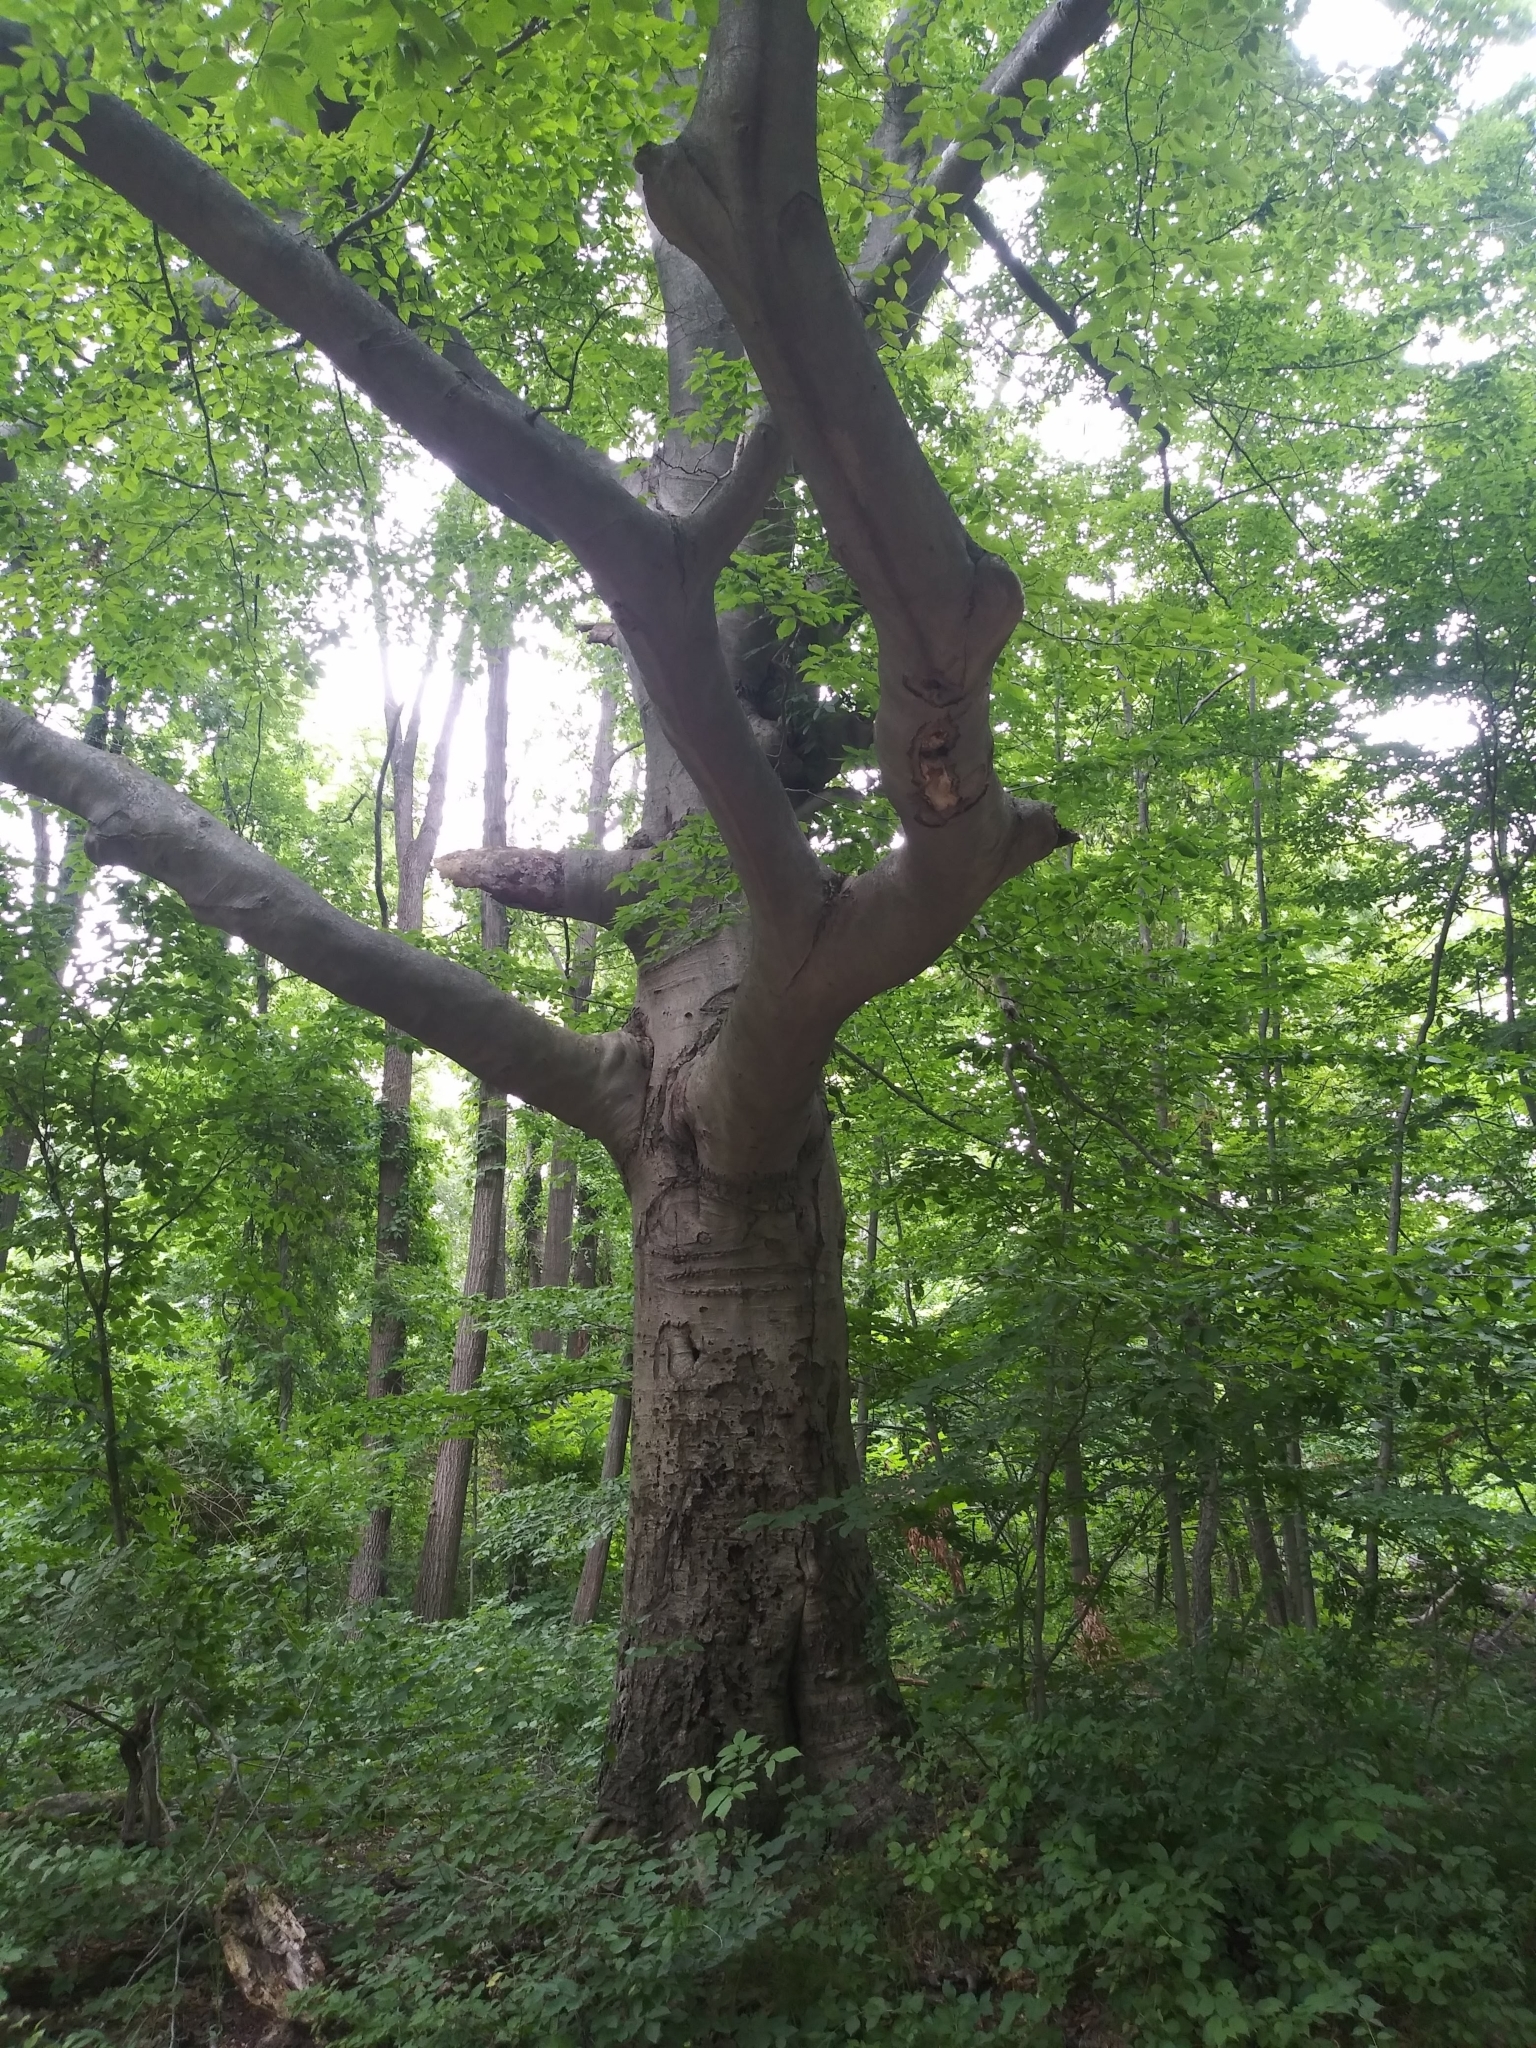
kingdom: Plantae
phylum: Tracheophyta
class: Magnoliopsida
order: Fagales
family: Fagaceae
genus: Fagus
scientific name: Fagus grandifolia
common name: American beech
